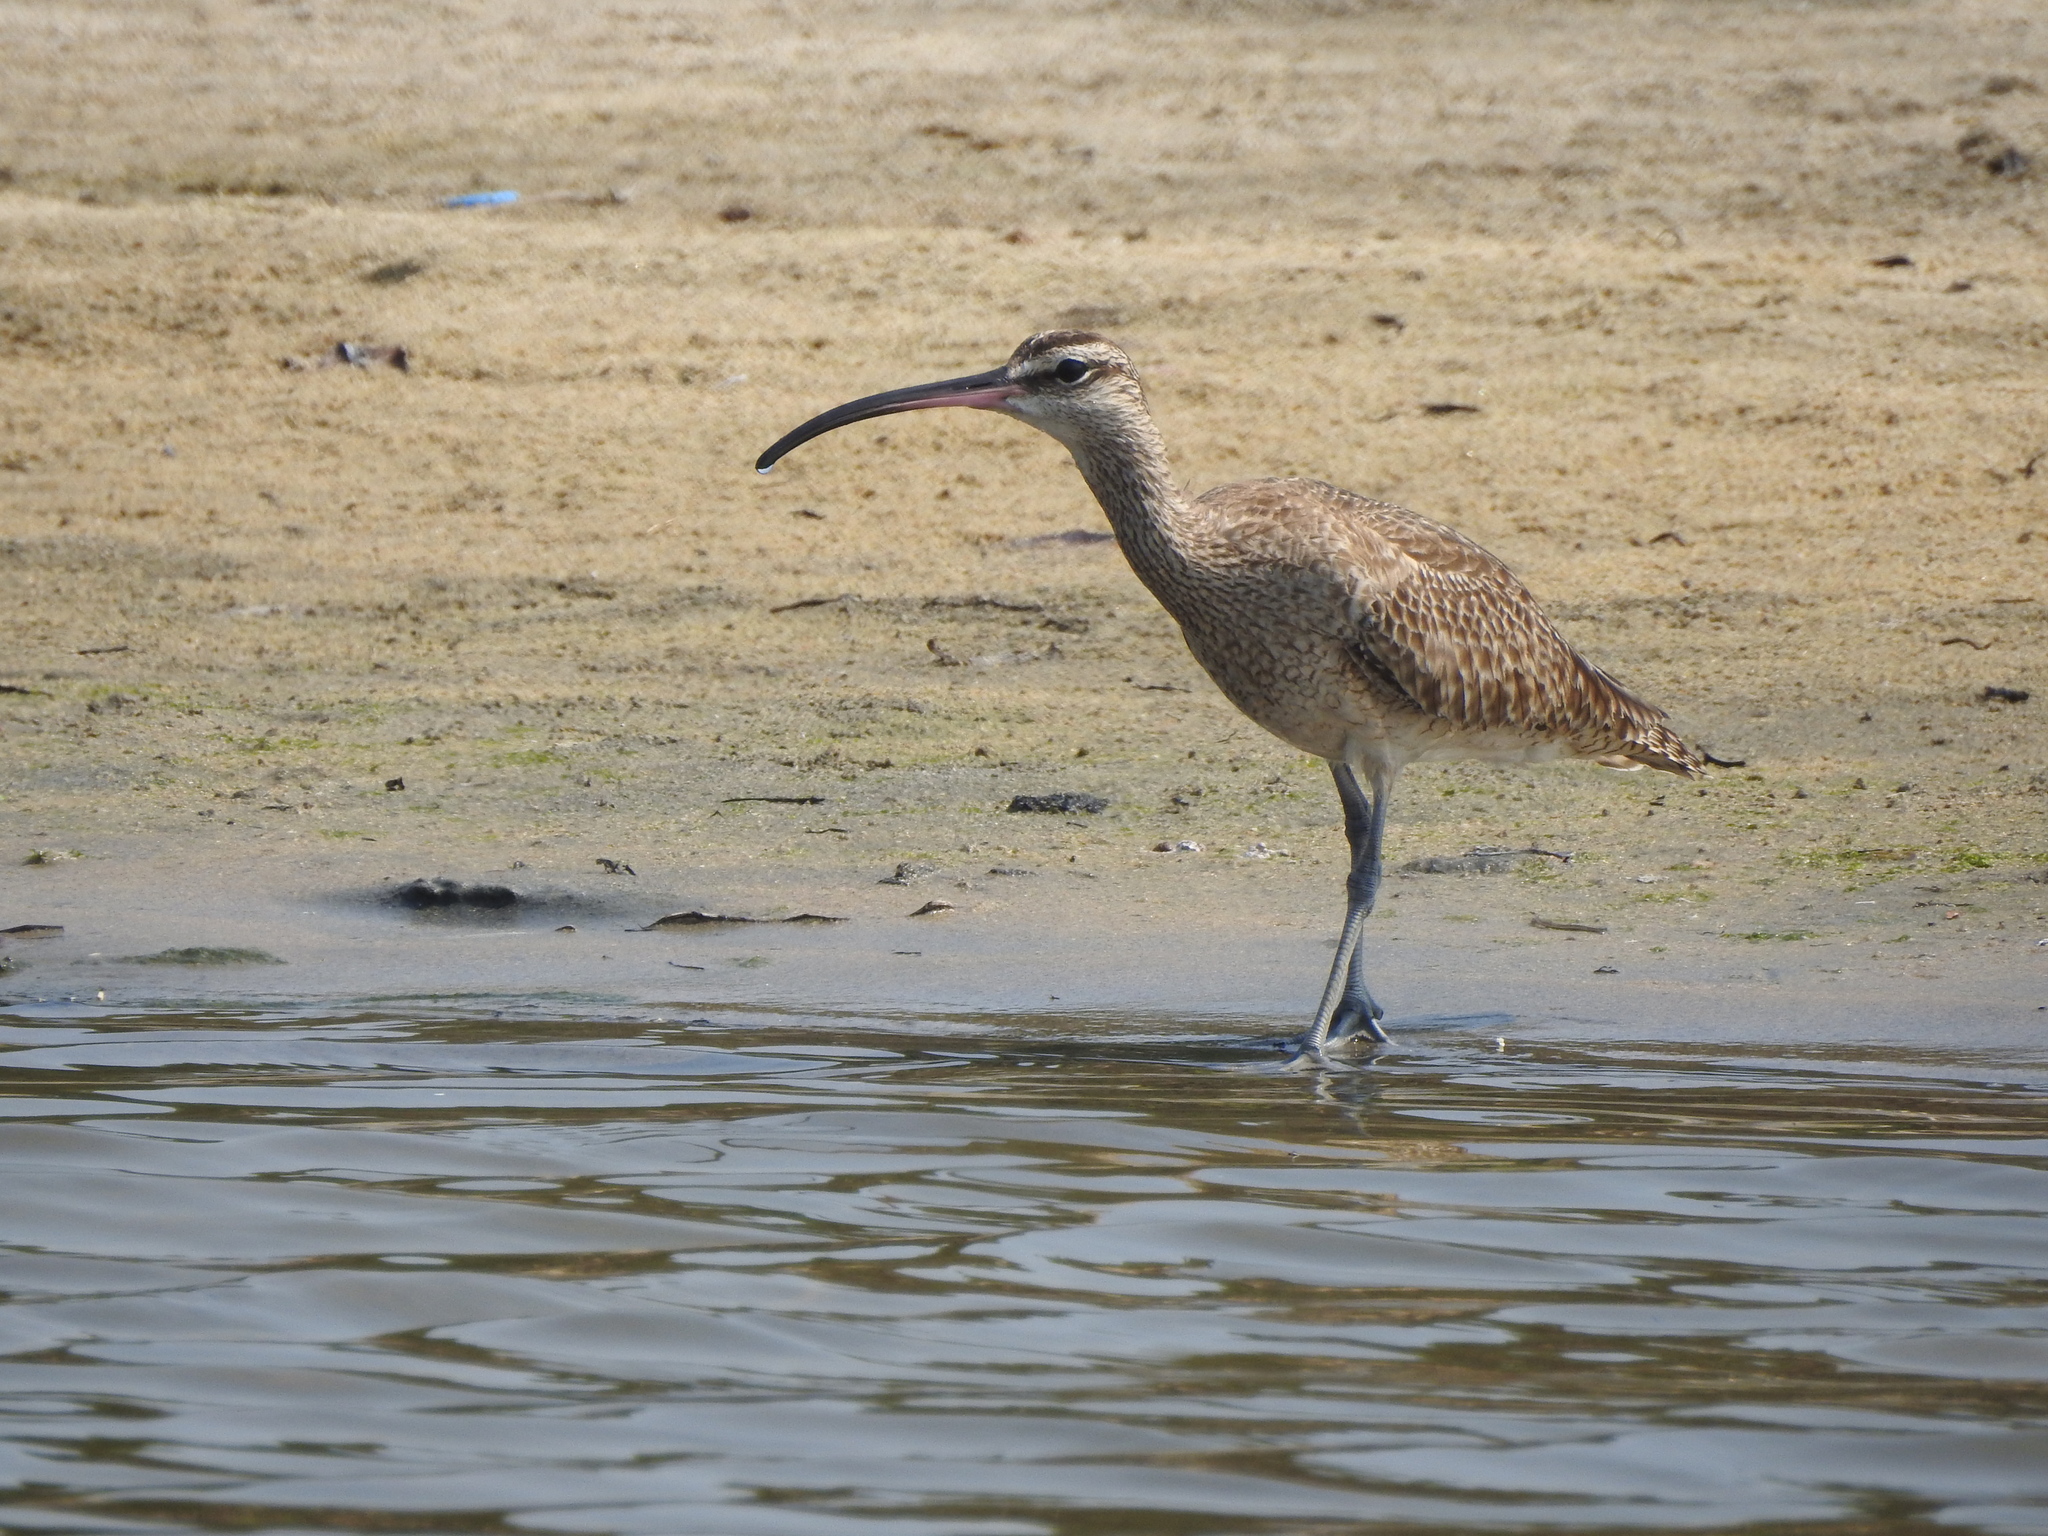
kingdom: Animalia
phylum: Chordata
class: Aves
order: Charadriiformes
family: Scolopacidae
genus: Numenius
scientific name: Numenius phaeopus
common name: Whimbrel
